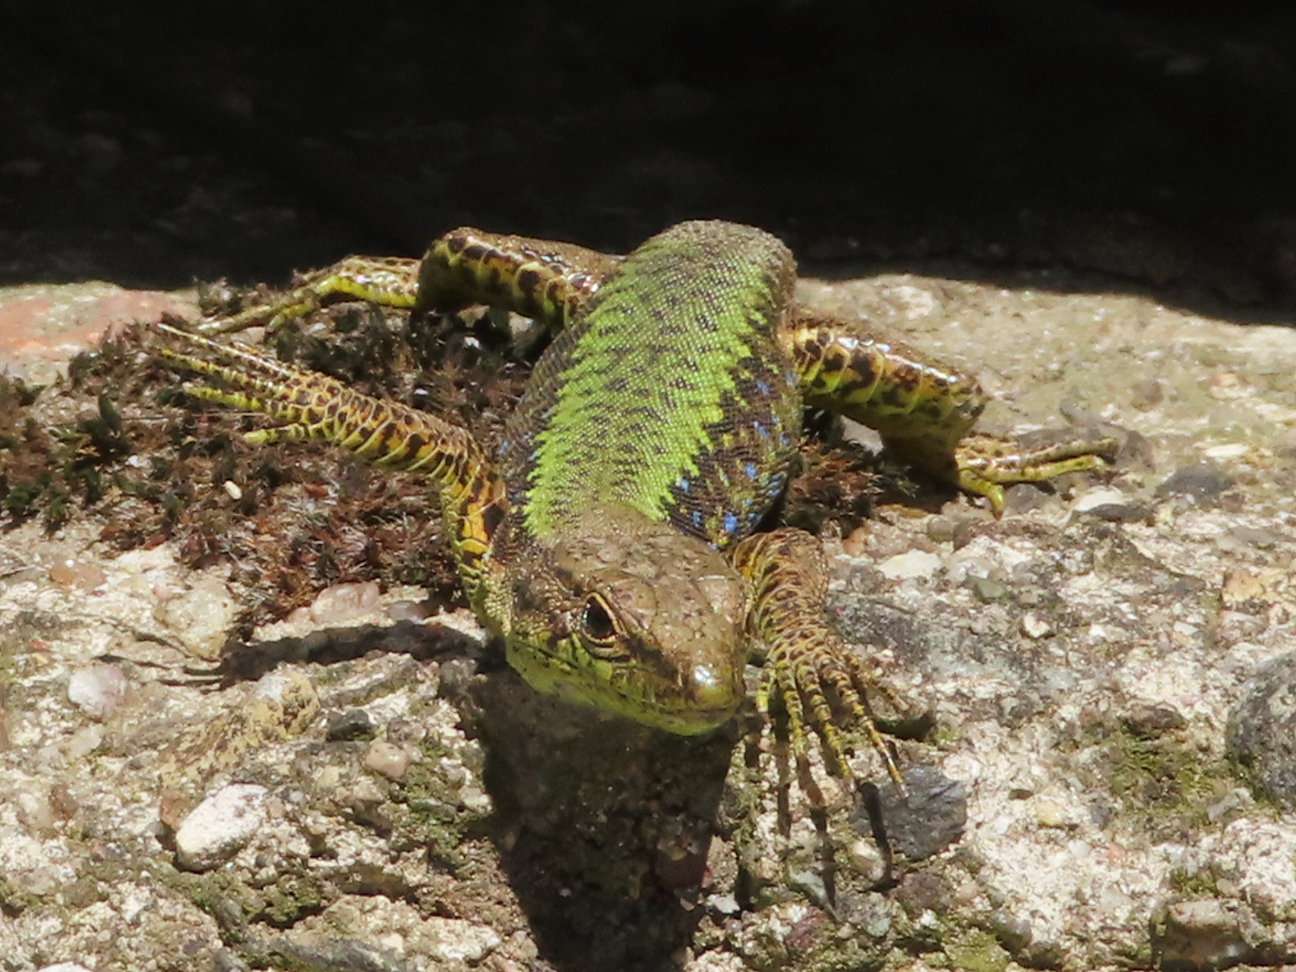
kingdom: Animalia
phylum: Chordata
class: Squamata
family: Lacertidae
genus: Darevskia
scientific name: Darevskia mixta
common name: Ajarian lizard
